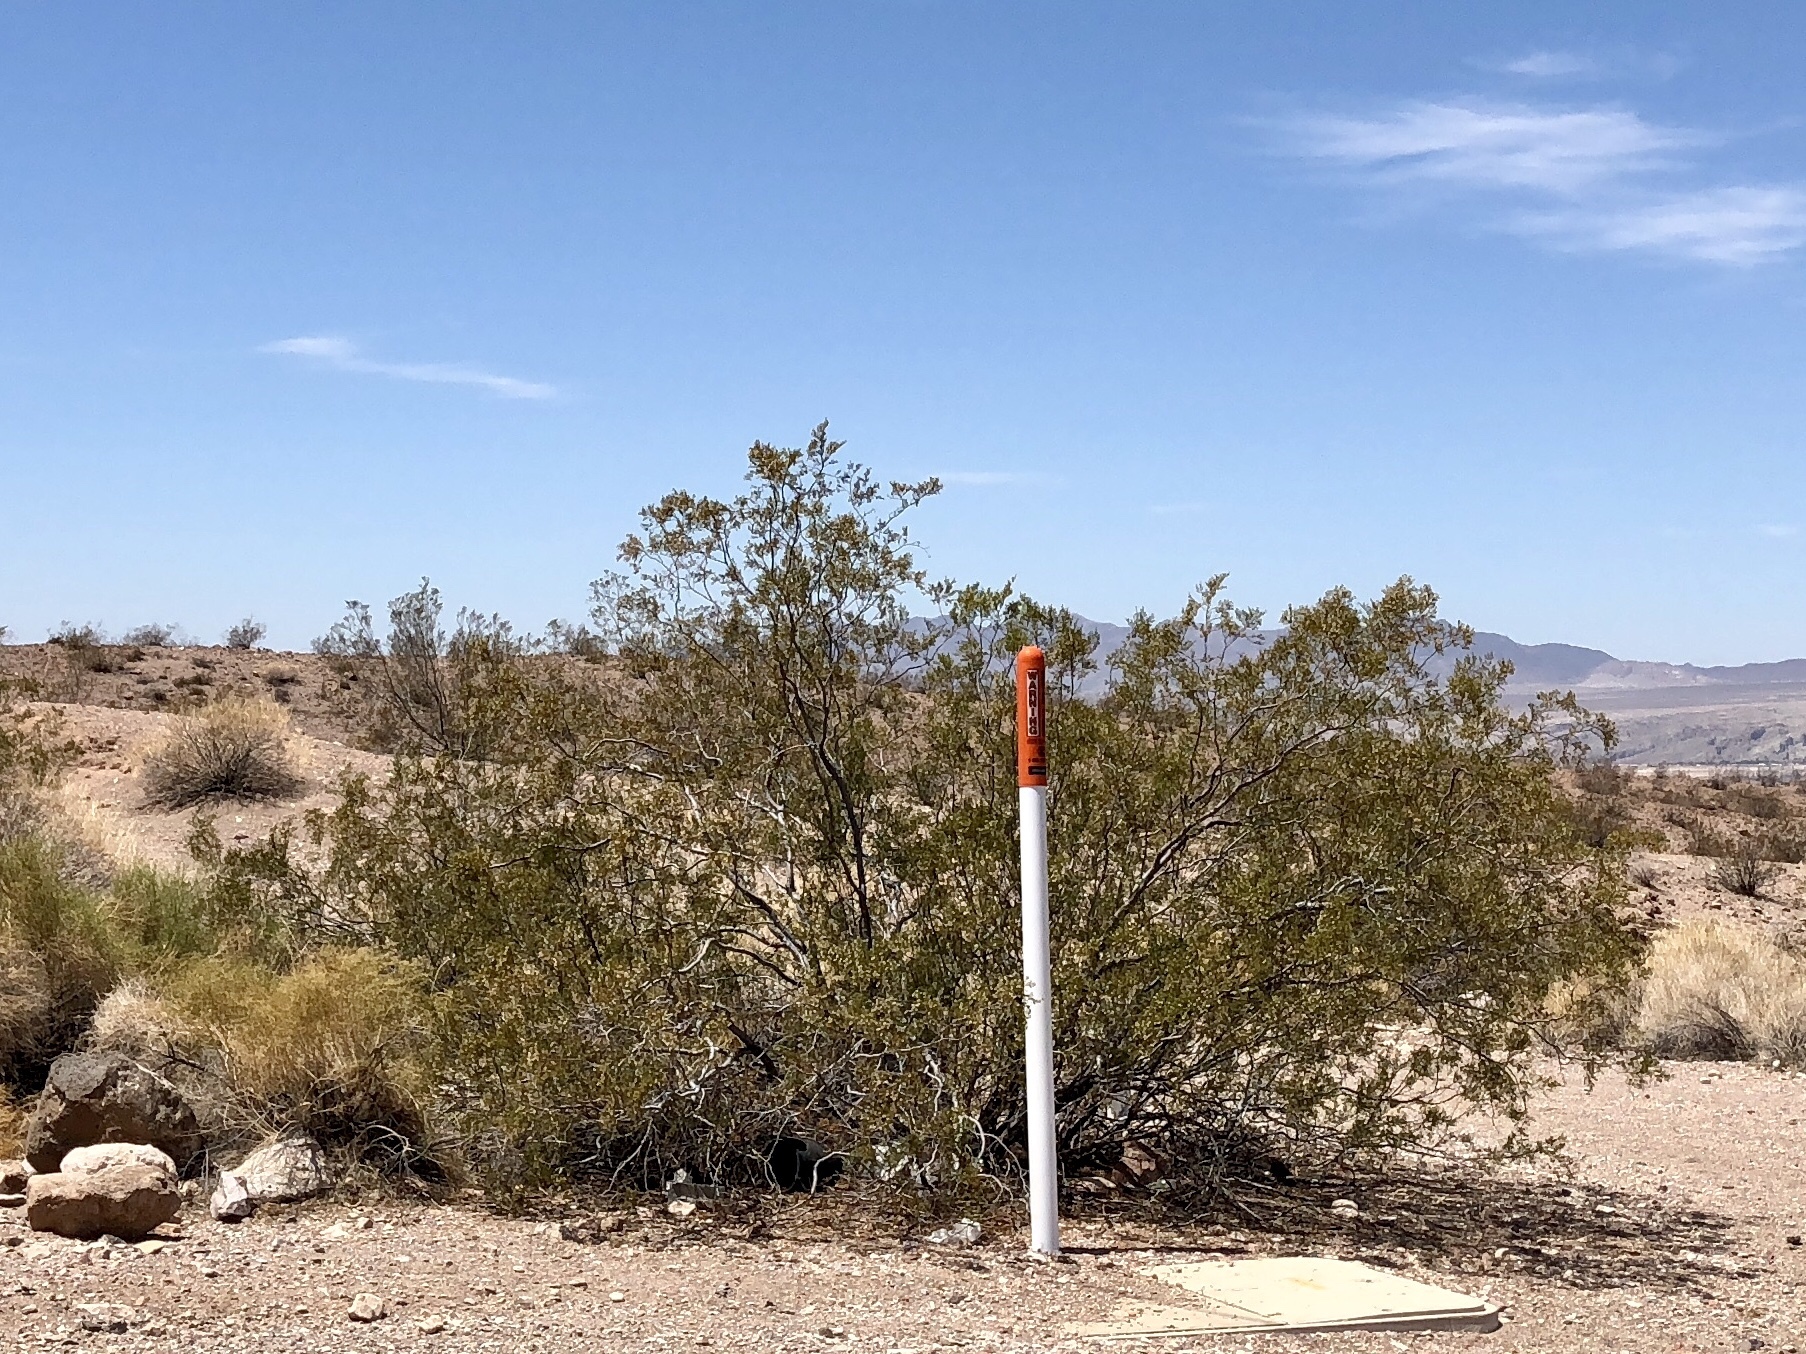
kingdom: Plantae
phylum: Tracheophyta
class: Magnoliopsida
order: Zygophyllales
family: Zygophyllaceae
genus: Larrea
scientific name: Larrea tridentata
